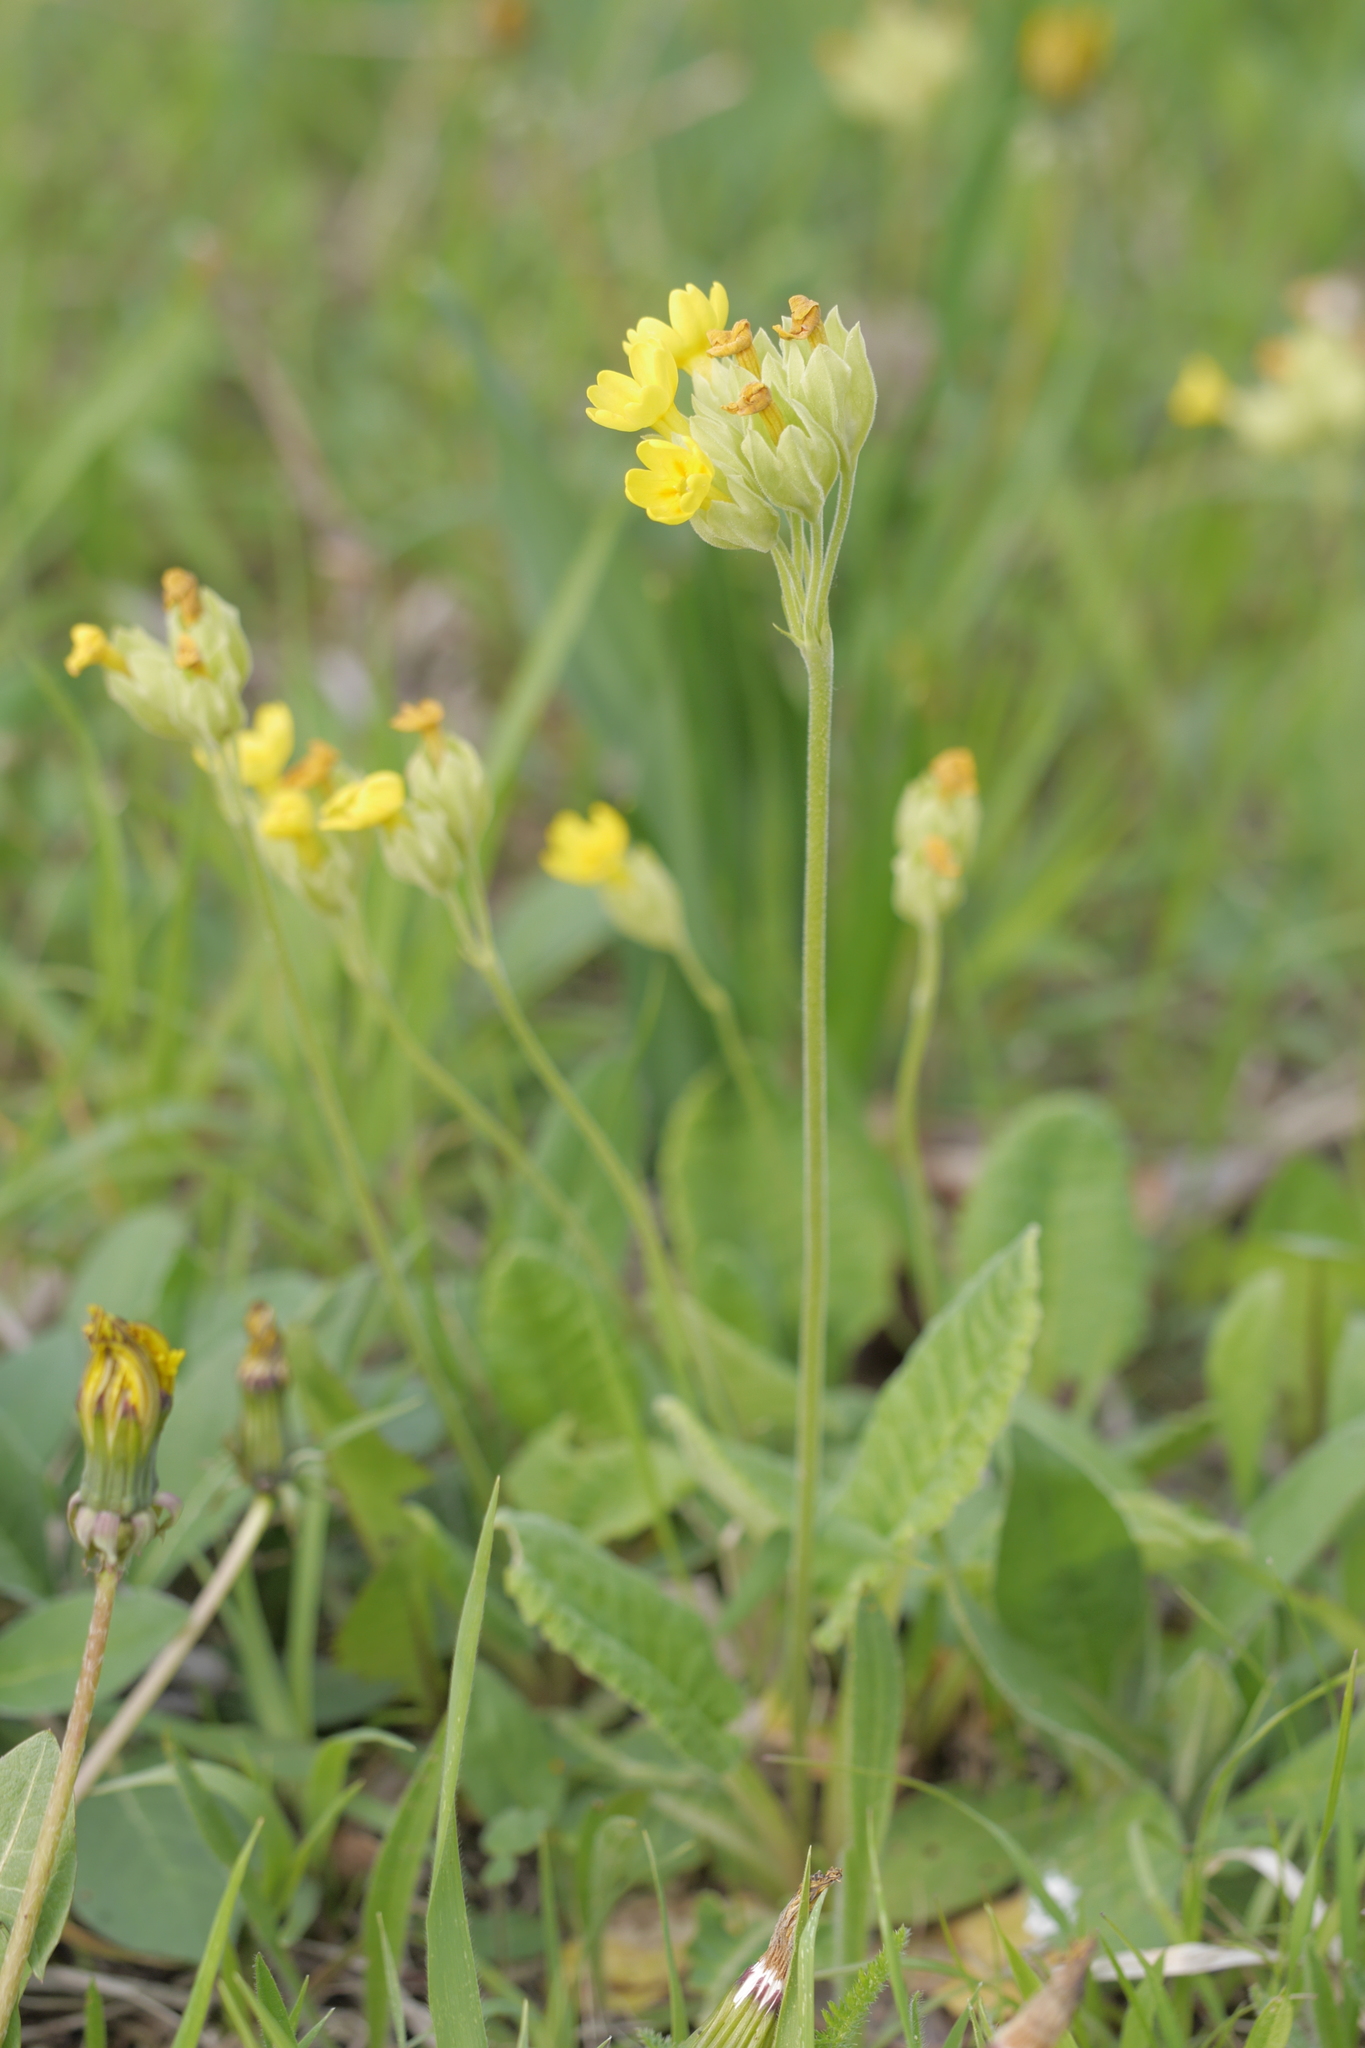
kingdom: Plantae
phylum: Tracheophyta
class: Magnoliopsida
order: Ericales
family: Primulaceae
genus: Primula
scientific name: Primula veris
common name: Cowslip
